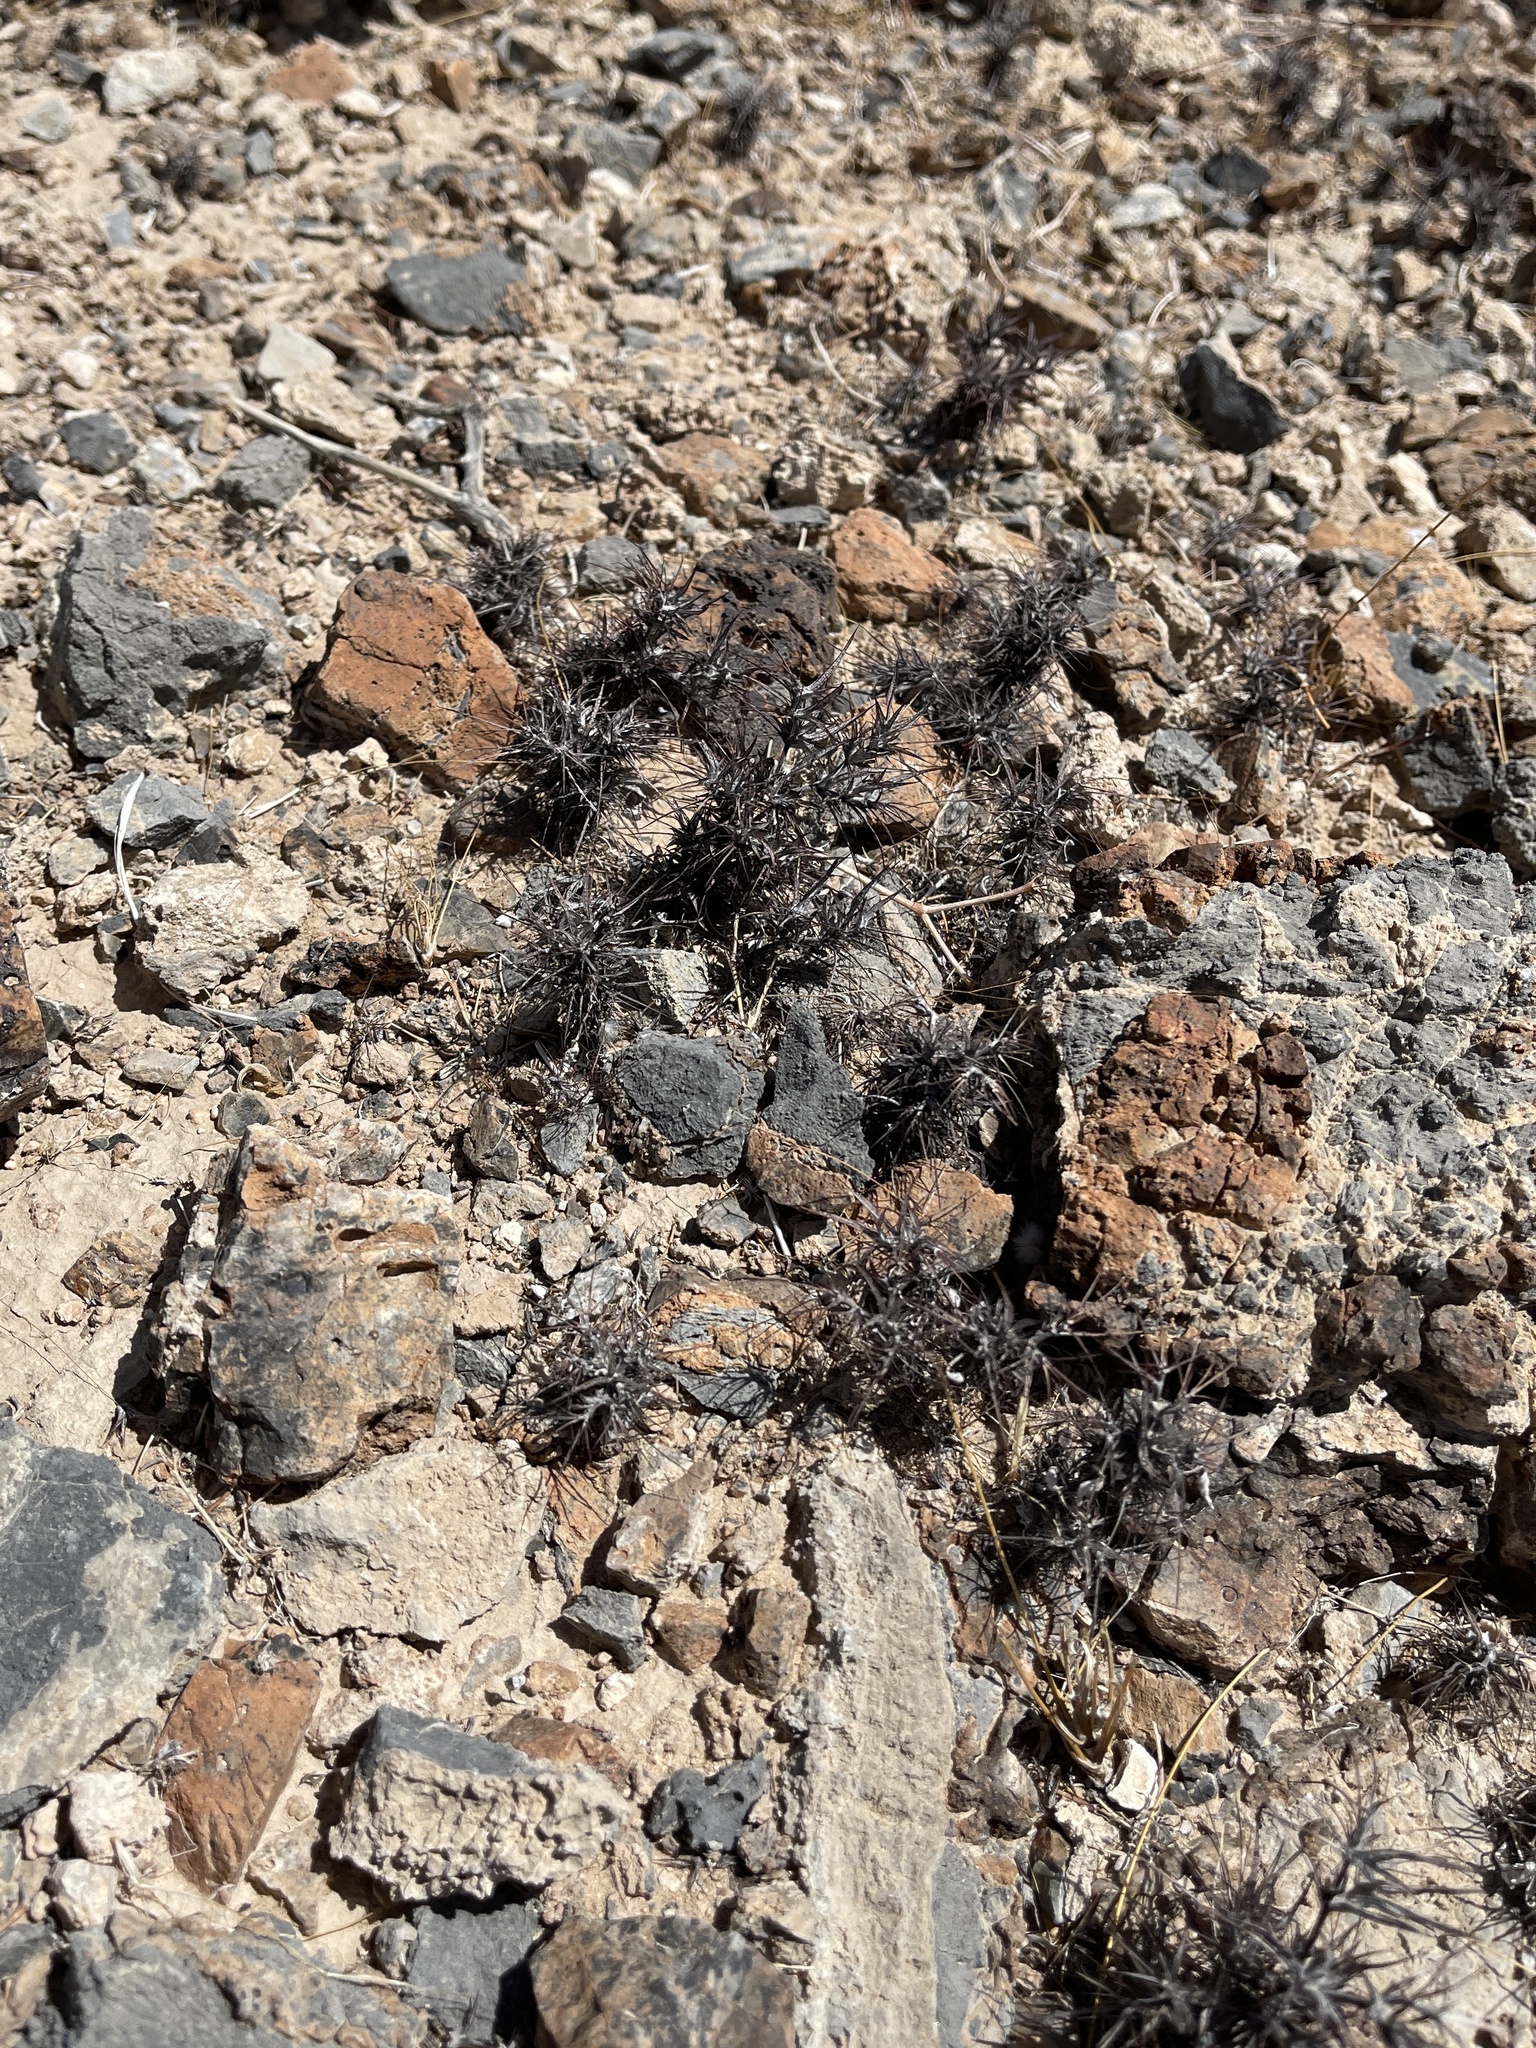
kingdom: Plantae
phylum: Tracheophyta
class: Magnoliopsida
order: Caryophyllales
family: Polygonaceae
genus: Chorizanthe
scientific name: Chorizanthe rigida
